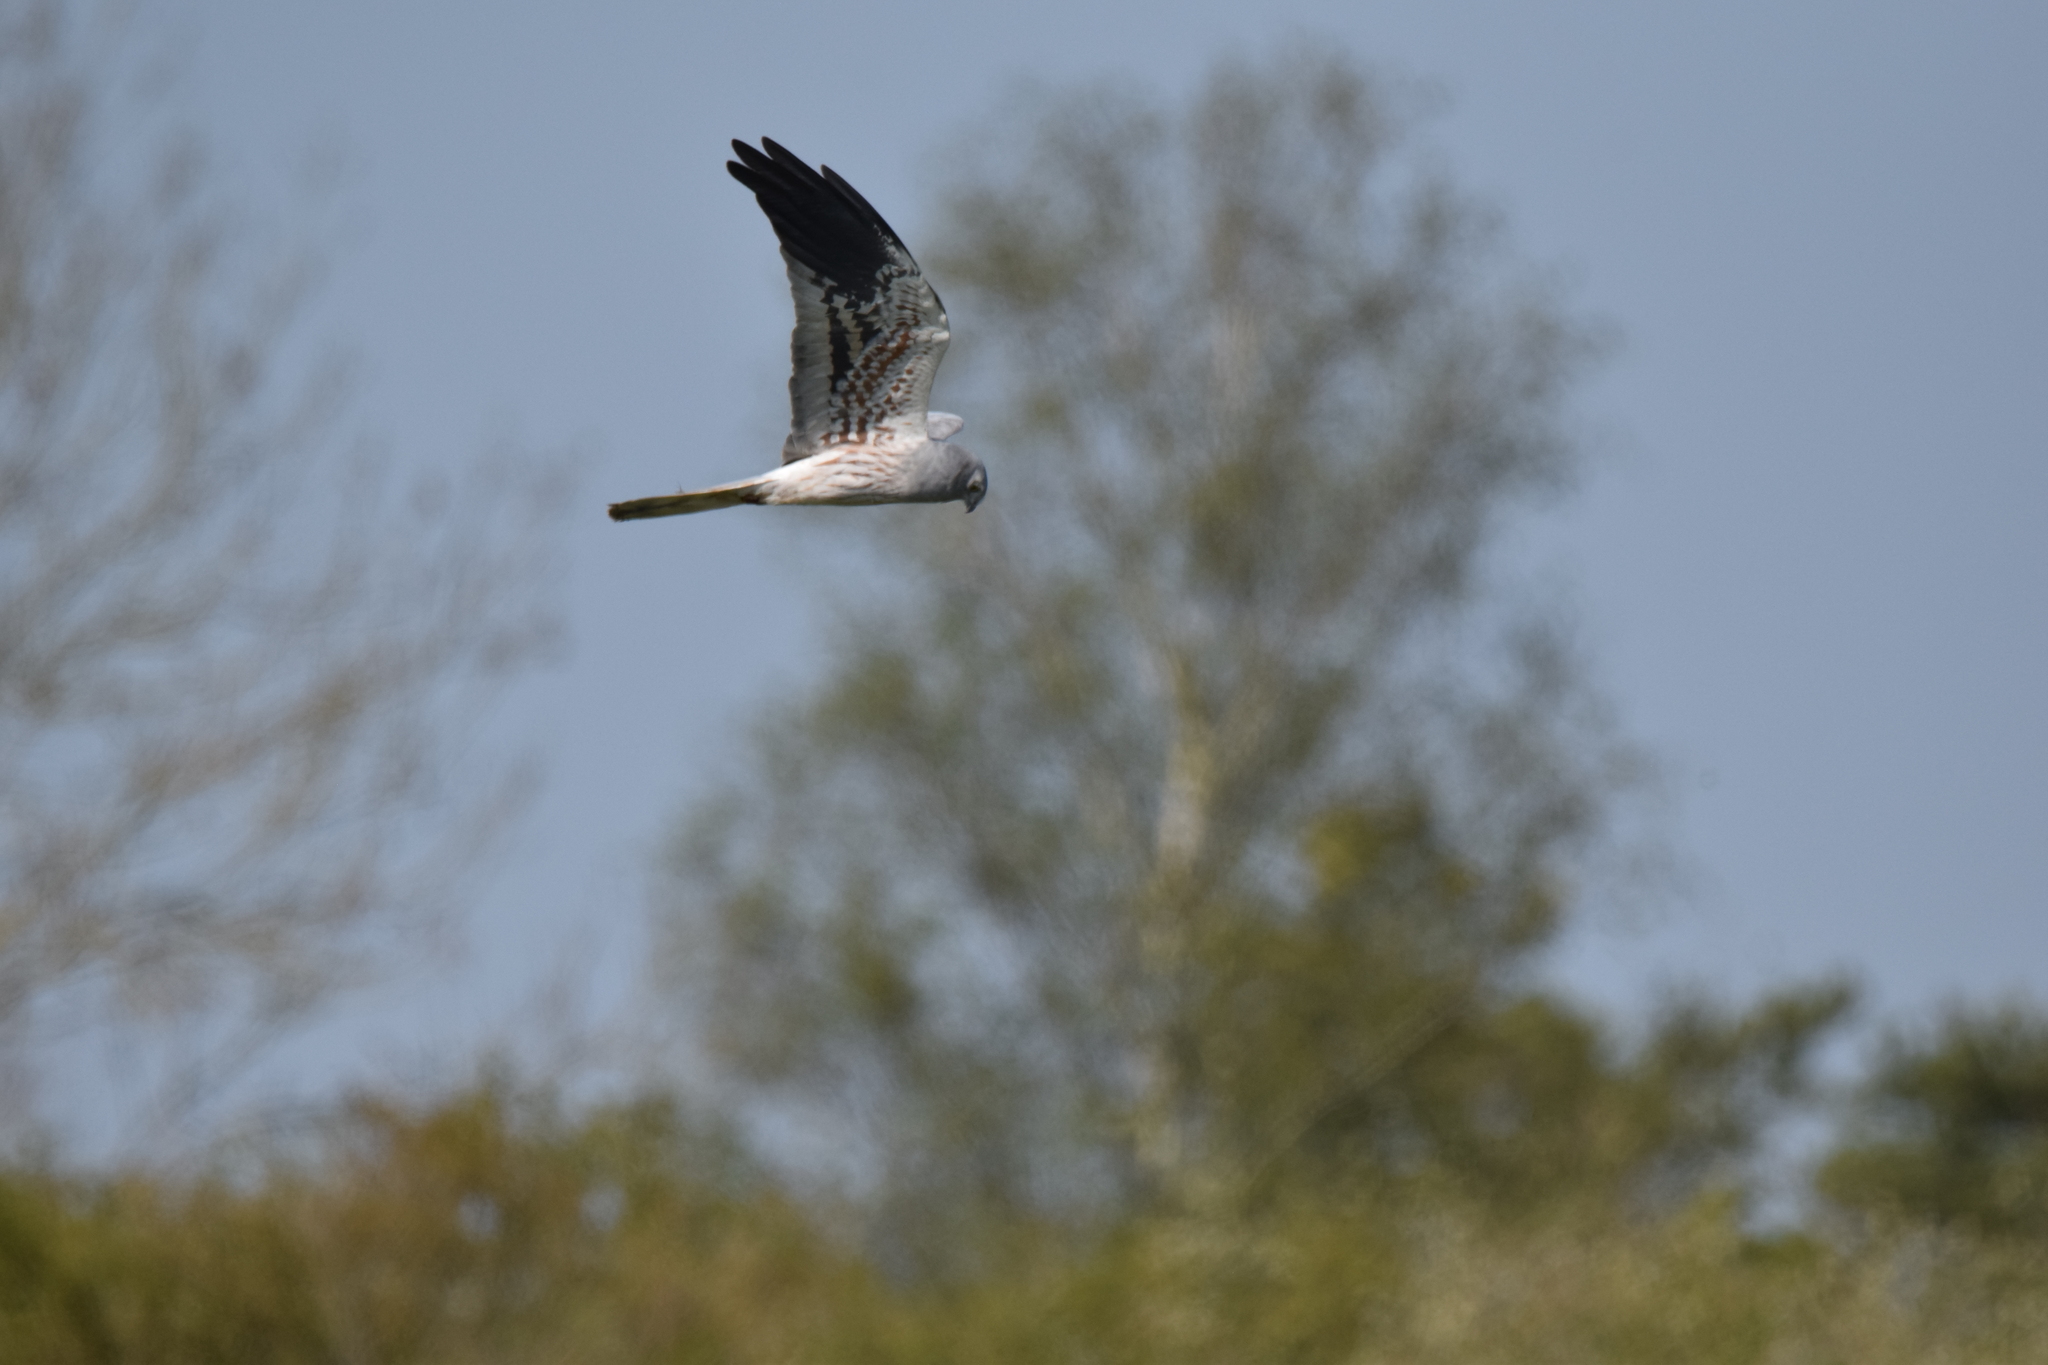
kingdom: Animalia
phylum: Chordata
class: Aves
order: Accipitriformes
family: Accipitridae
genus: Circus
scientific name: Circus pygargus
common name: Montagu's harrier
